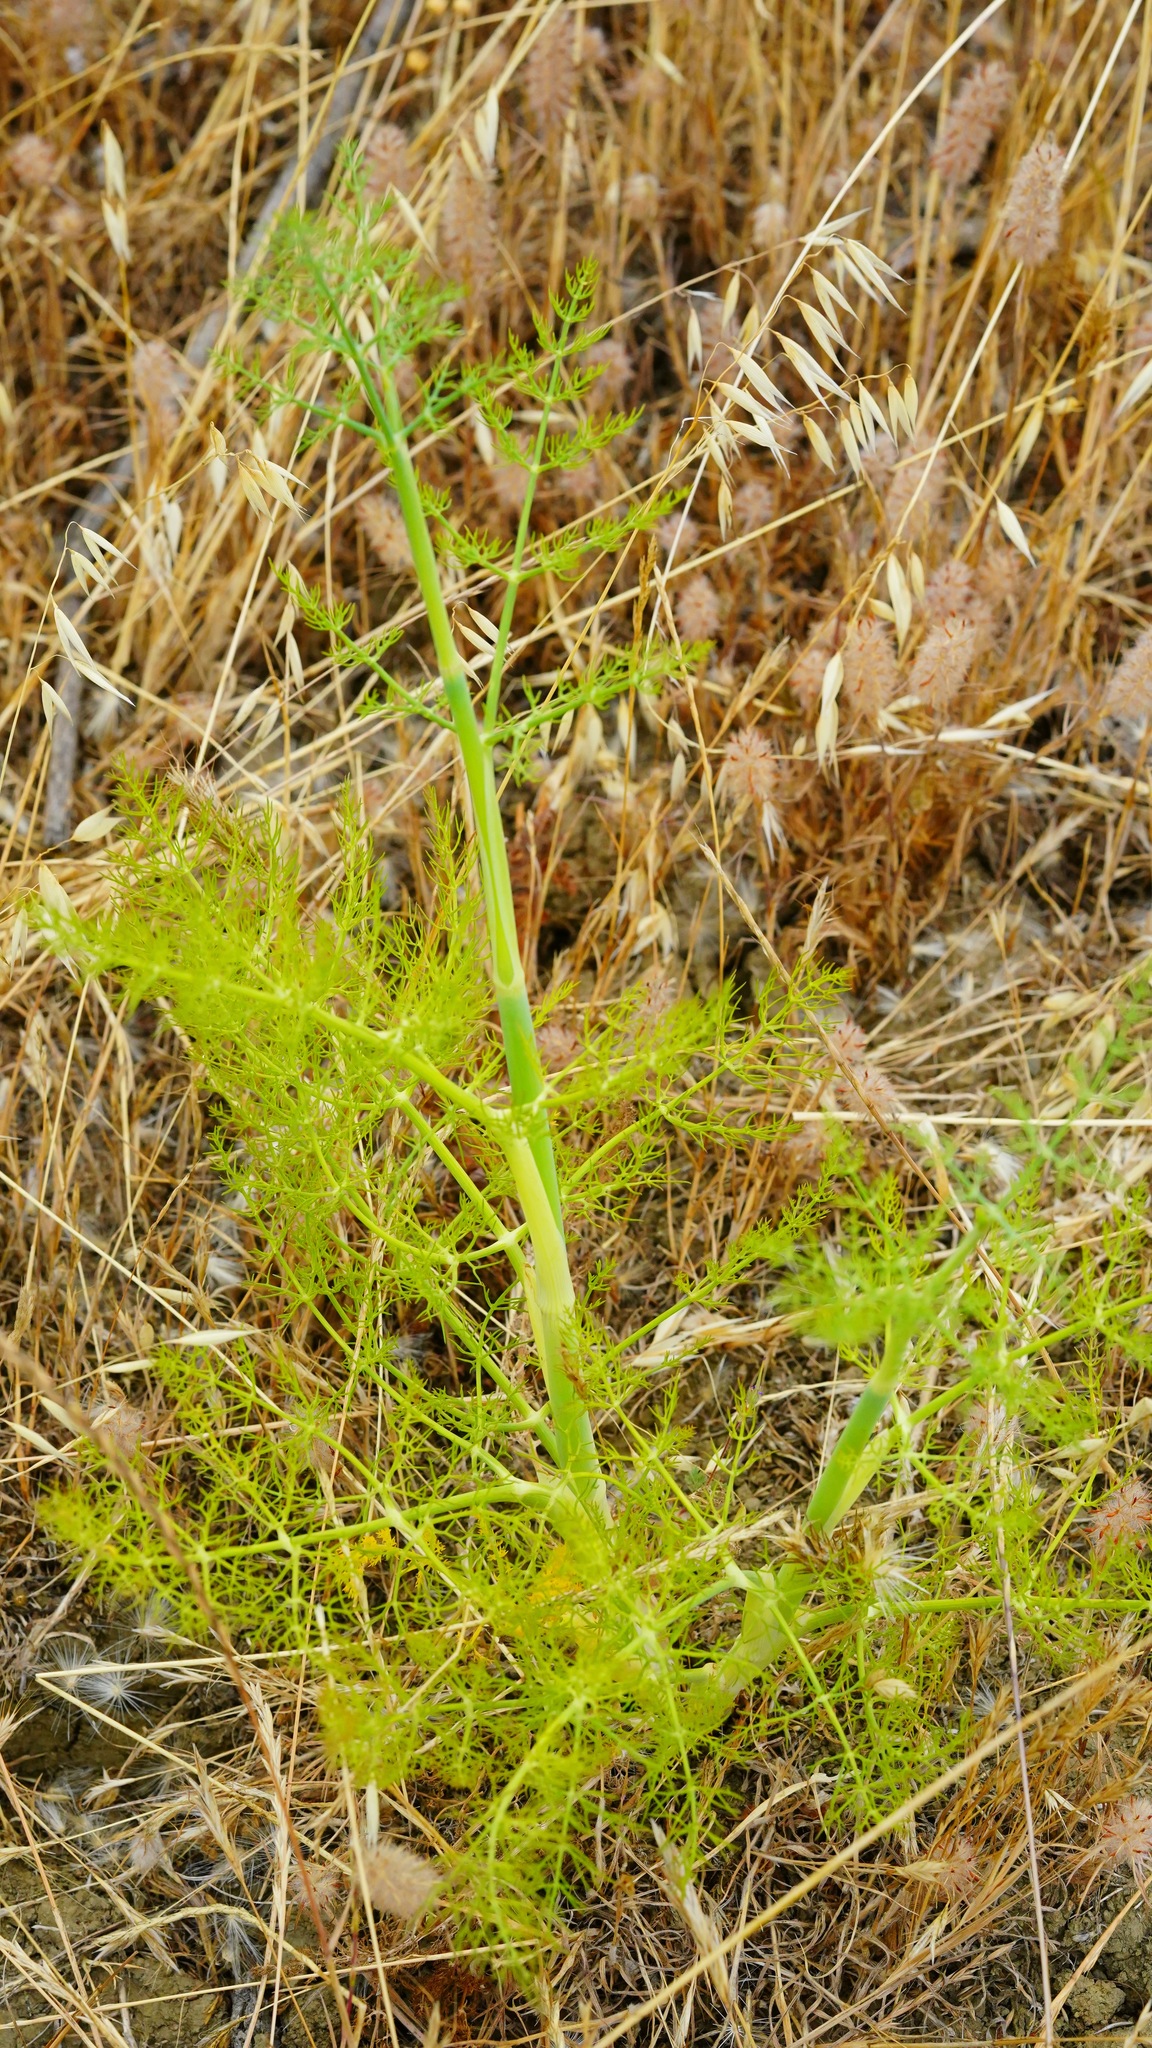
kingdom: Plantae
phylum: Tracheophyta
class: Magnoliopsida
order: Apiales
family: Apiaceae
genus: Foeniculum
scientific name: Foeniculum vulgare
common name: Fennel
